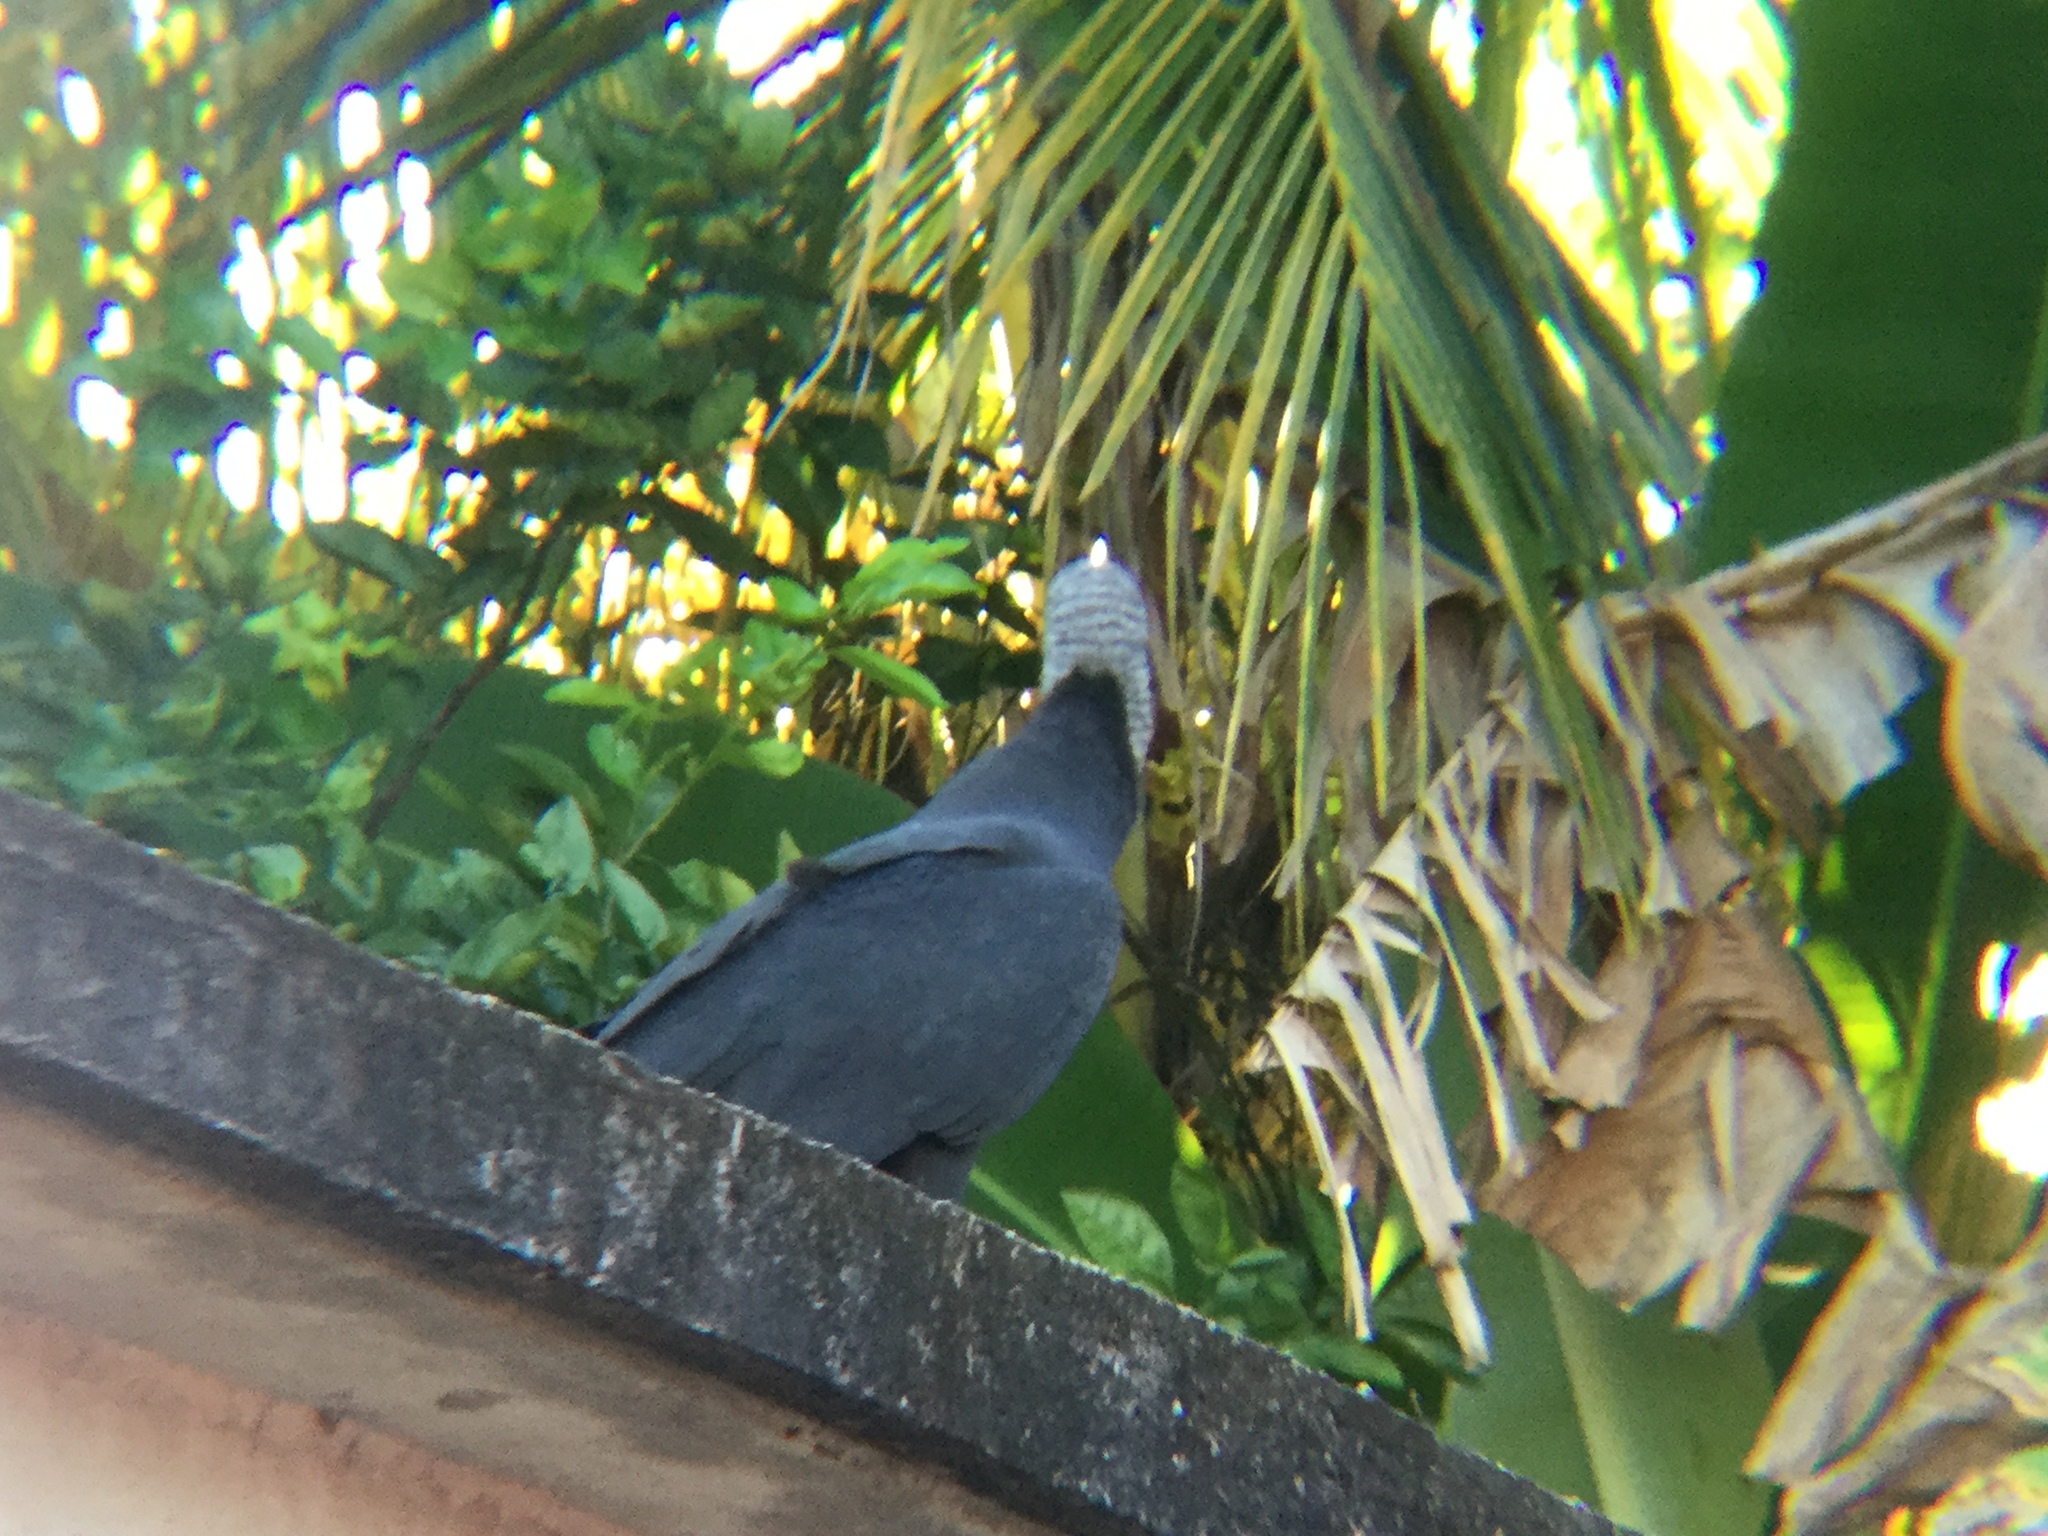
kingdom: Animalia
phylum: Chordata
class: Aves
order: Accipitriformes
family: Cathartidae
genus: Coragyps
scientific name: Coragyps atratus
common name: Black vulture
